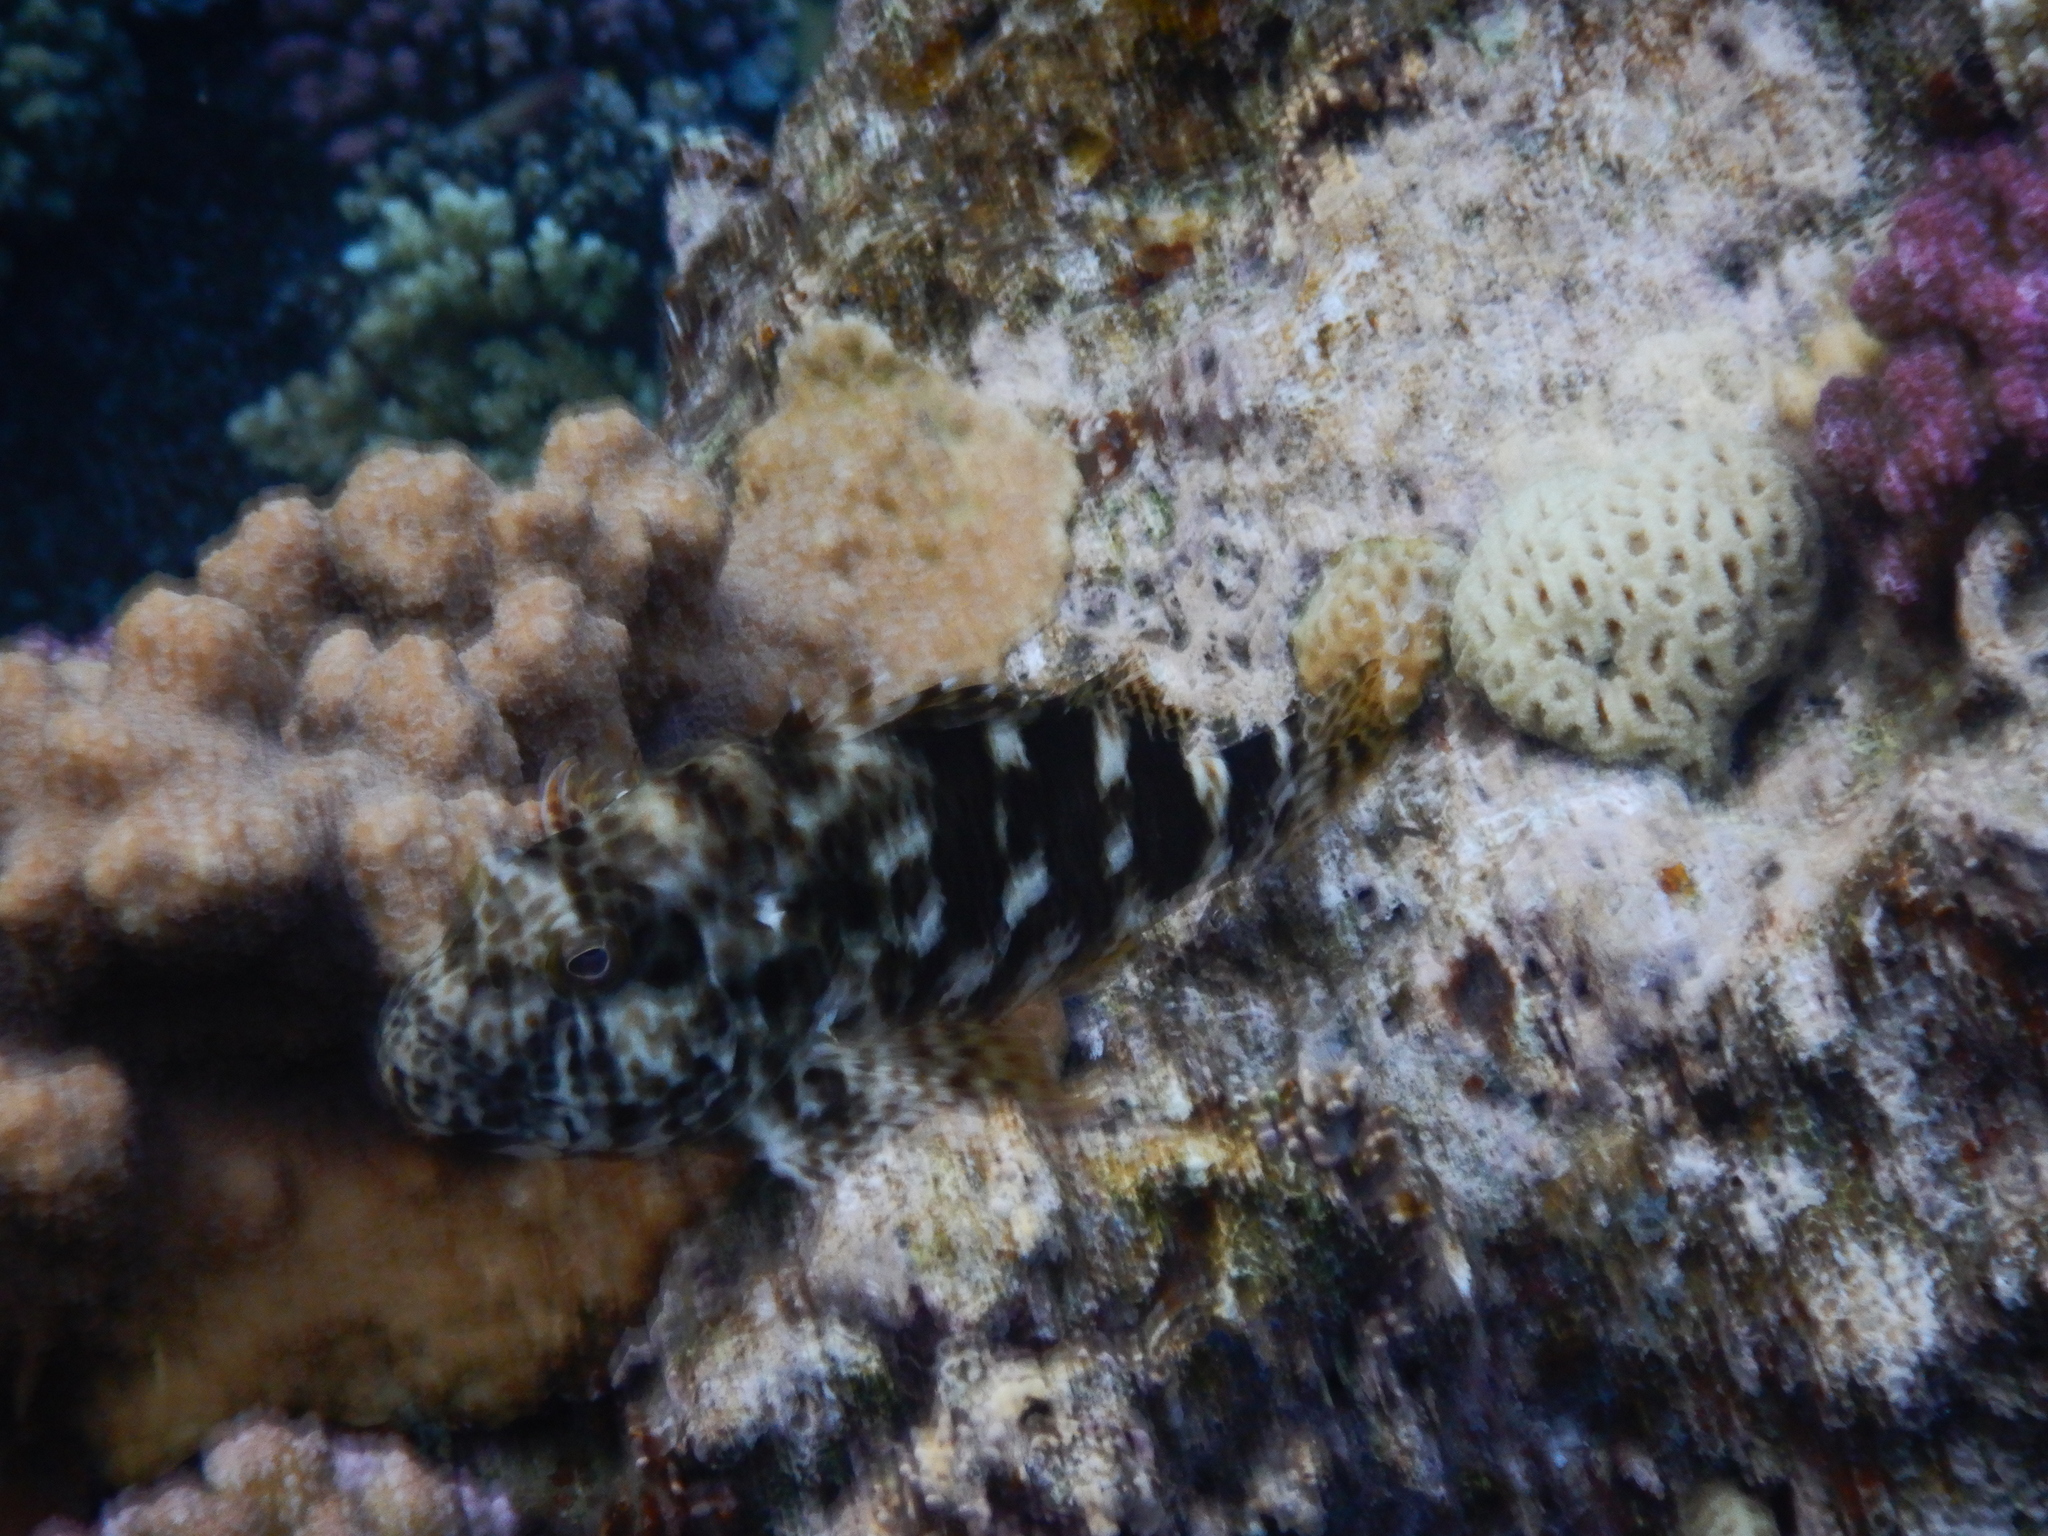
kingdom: Animalia
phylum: Chordata
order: Perciformes
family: Cirrhitidae
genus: Cirrhitus
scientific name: Cirrhitus pinnulatus
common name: Stocky hawkfish
